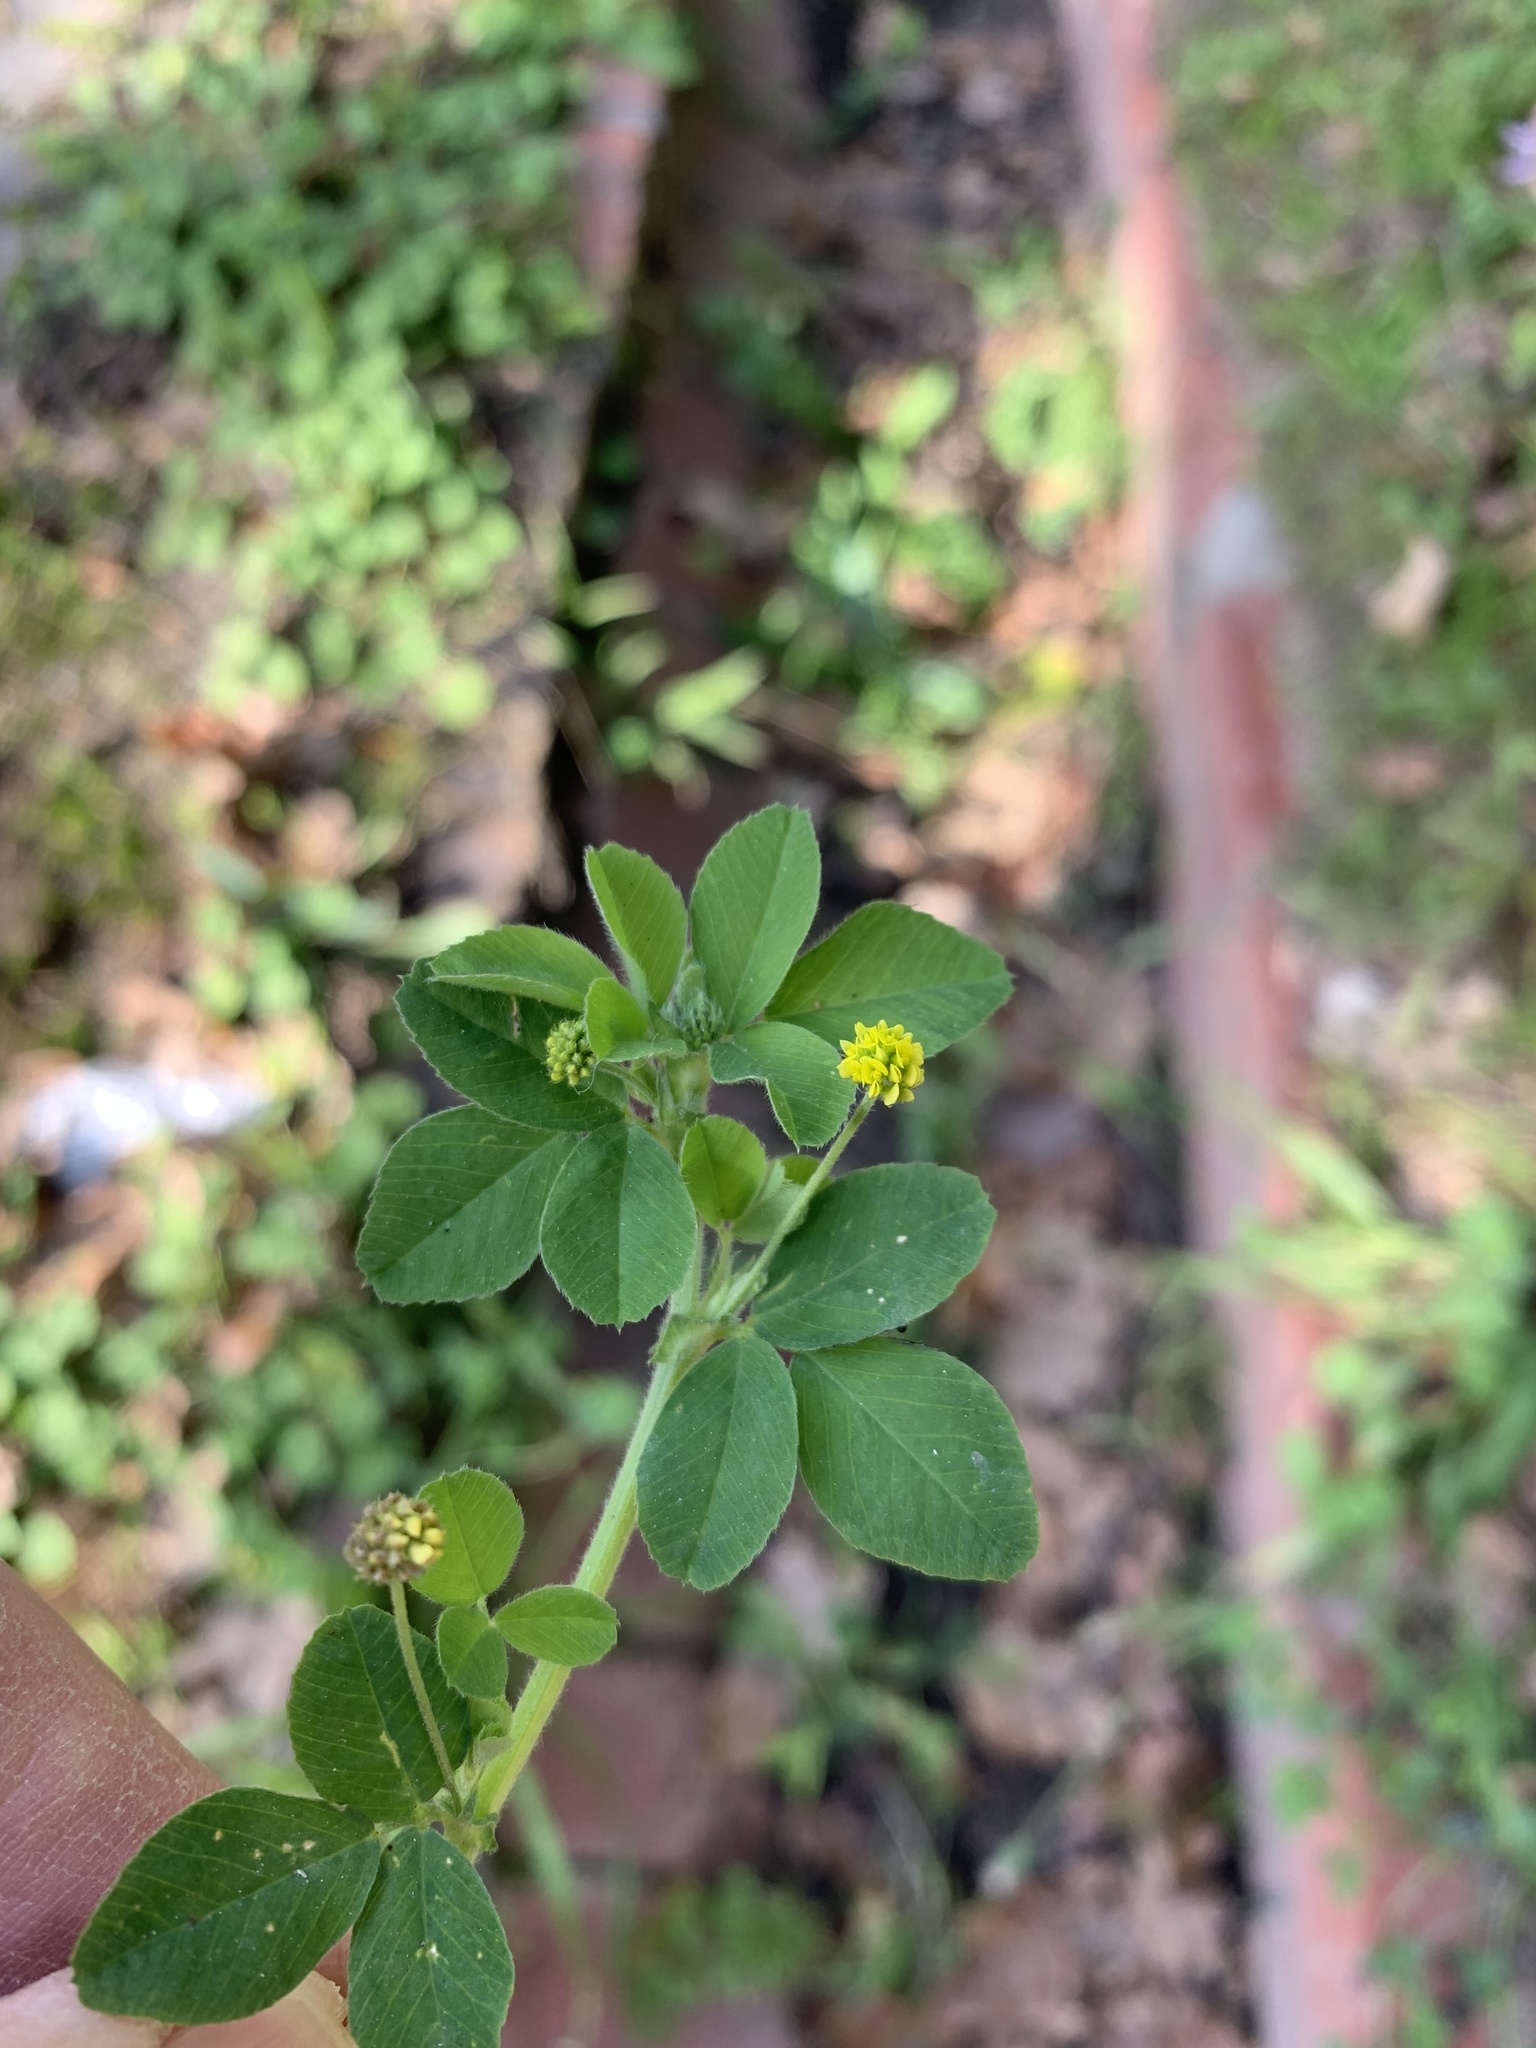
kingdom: Plantae
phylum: Tracheophyta
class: Magnoliopsida
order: Fabales
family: Fabaceae
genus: Medicago
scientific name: Medicago polymorpha
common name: Burclover
